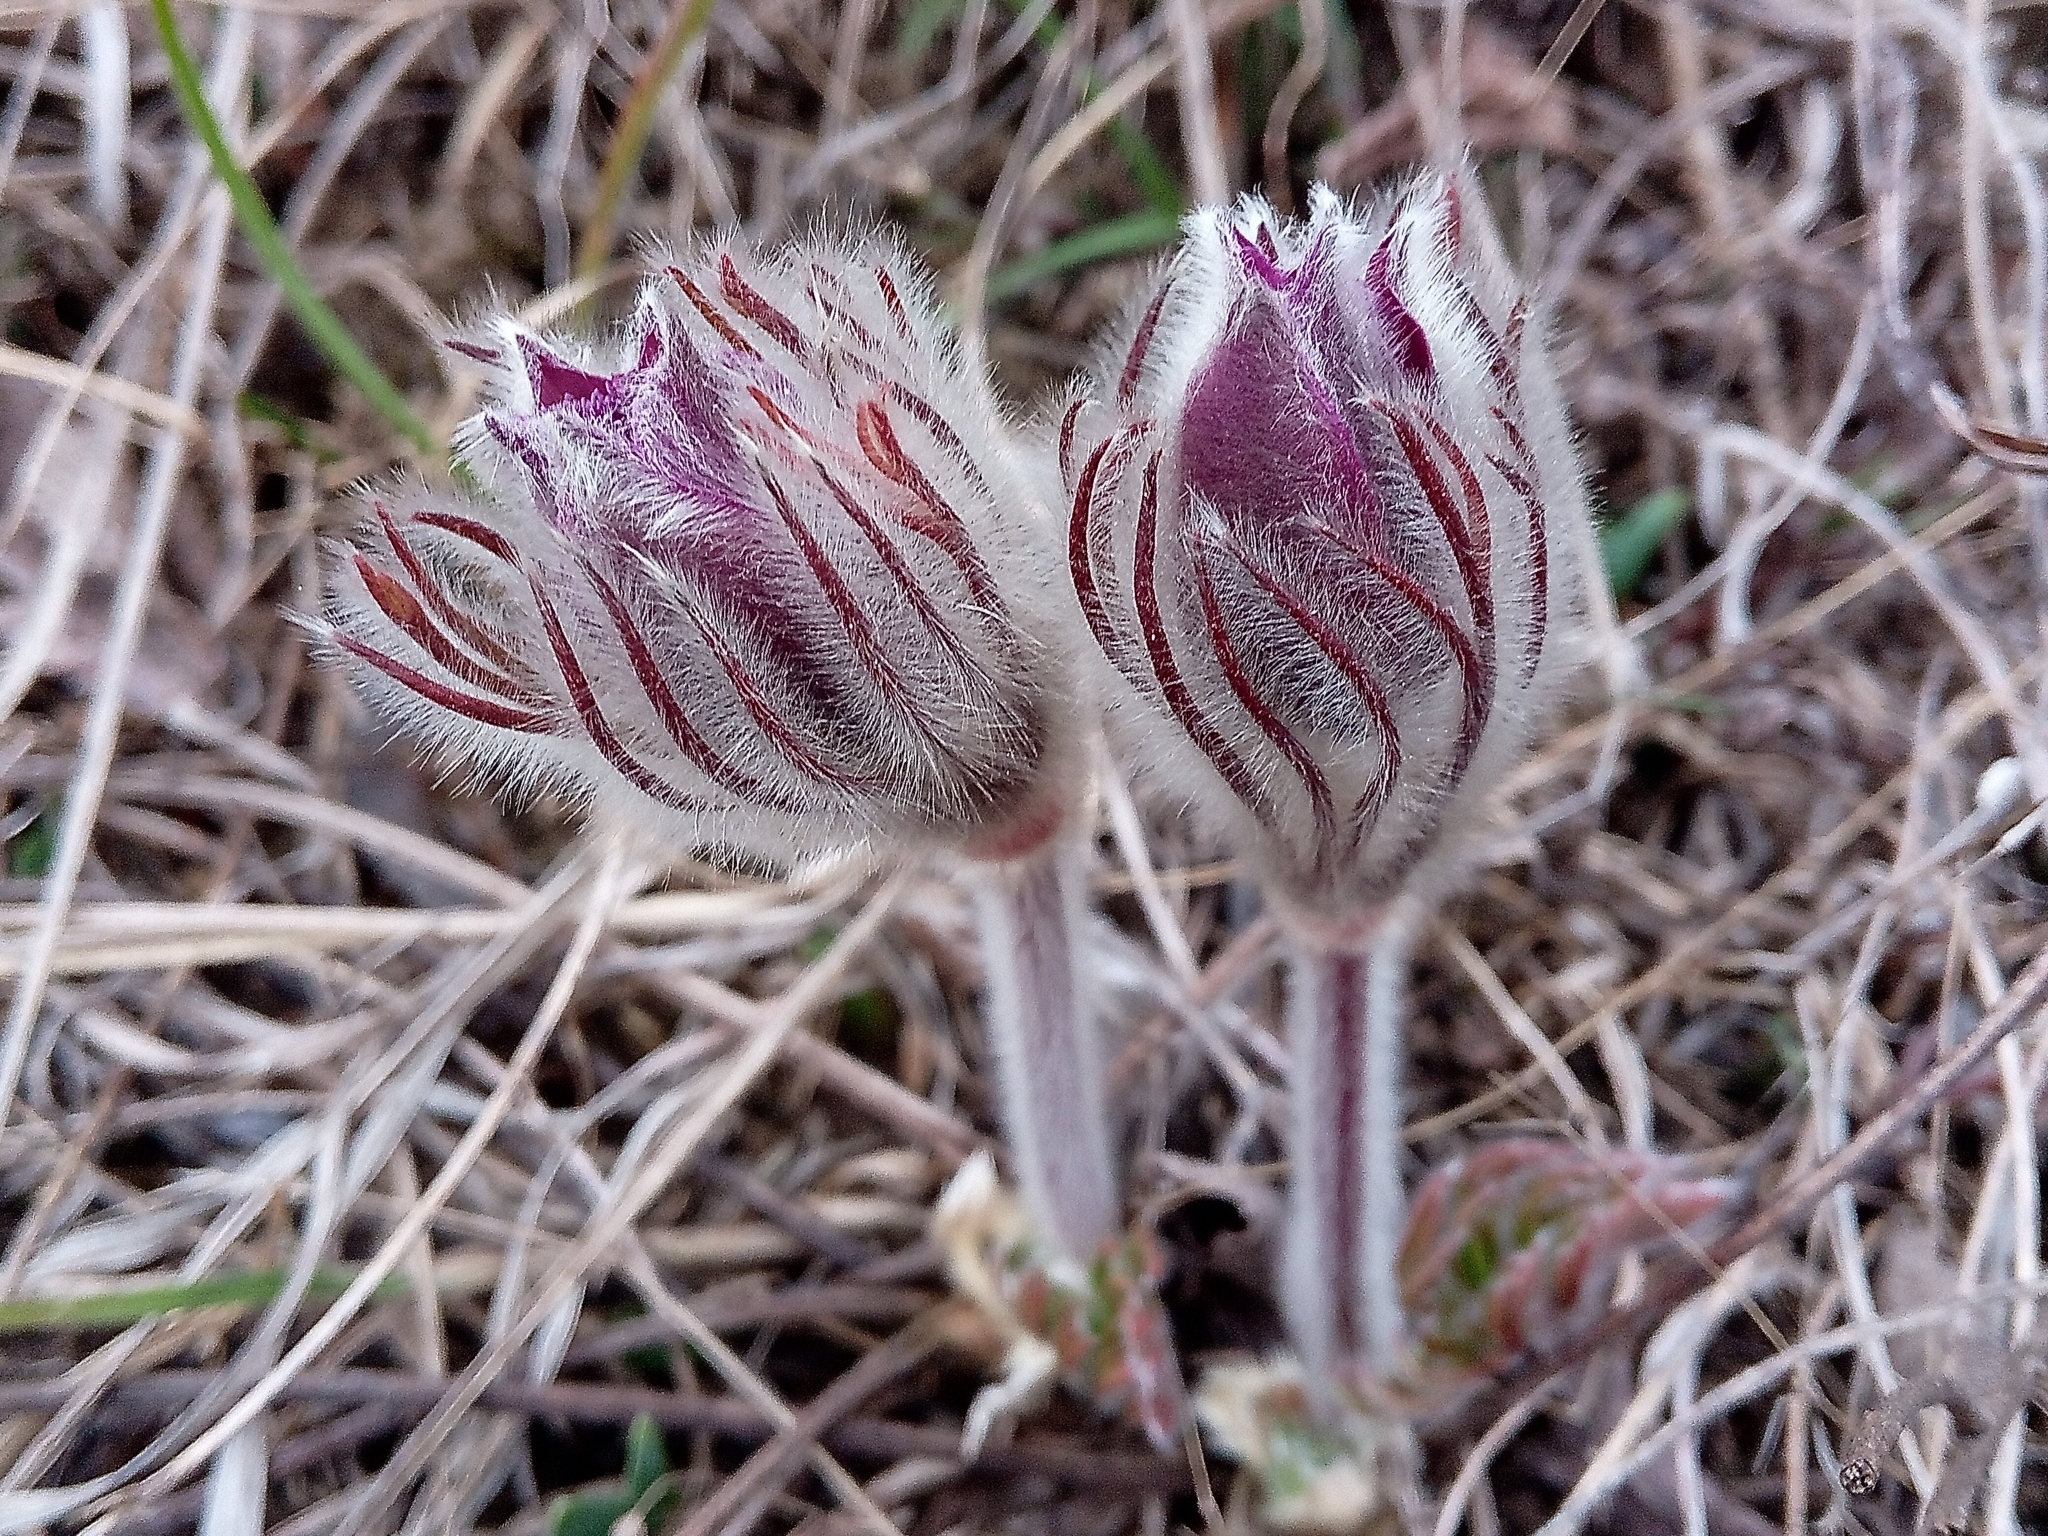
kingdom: Plantae
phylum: Tracheophyta
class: Magnoliopsida
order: Ranunculales
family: Ranunculaceae
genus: Pulsatilla
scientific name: Pulsatilla pratensis
